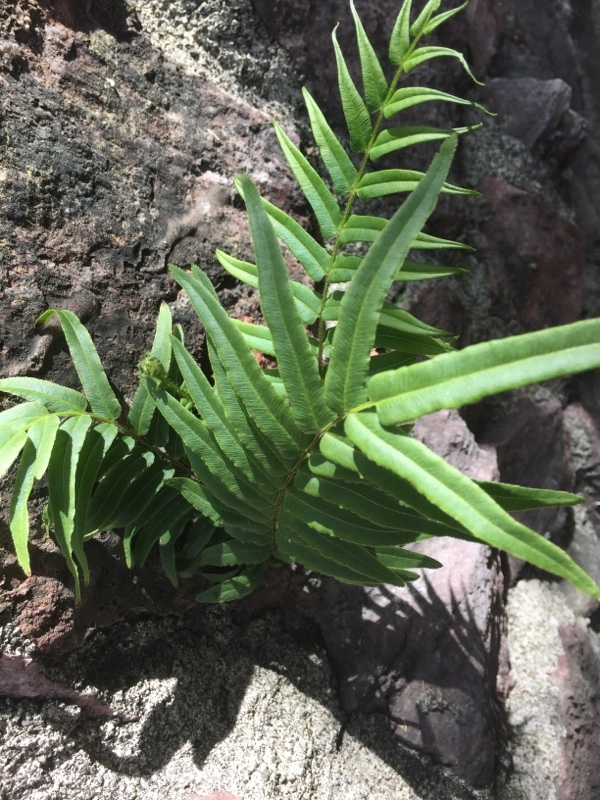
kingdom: Plantae
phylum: Tracheophyta
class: Polypodiopsida
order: Polypodiales
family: Pteridaceae
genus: Pteris
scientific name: Pteris vittata
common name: Ladder brake
